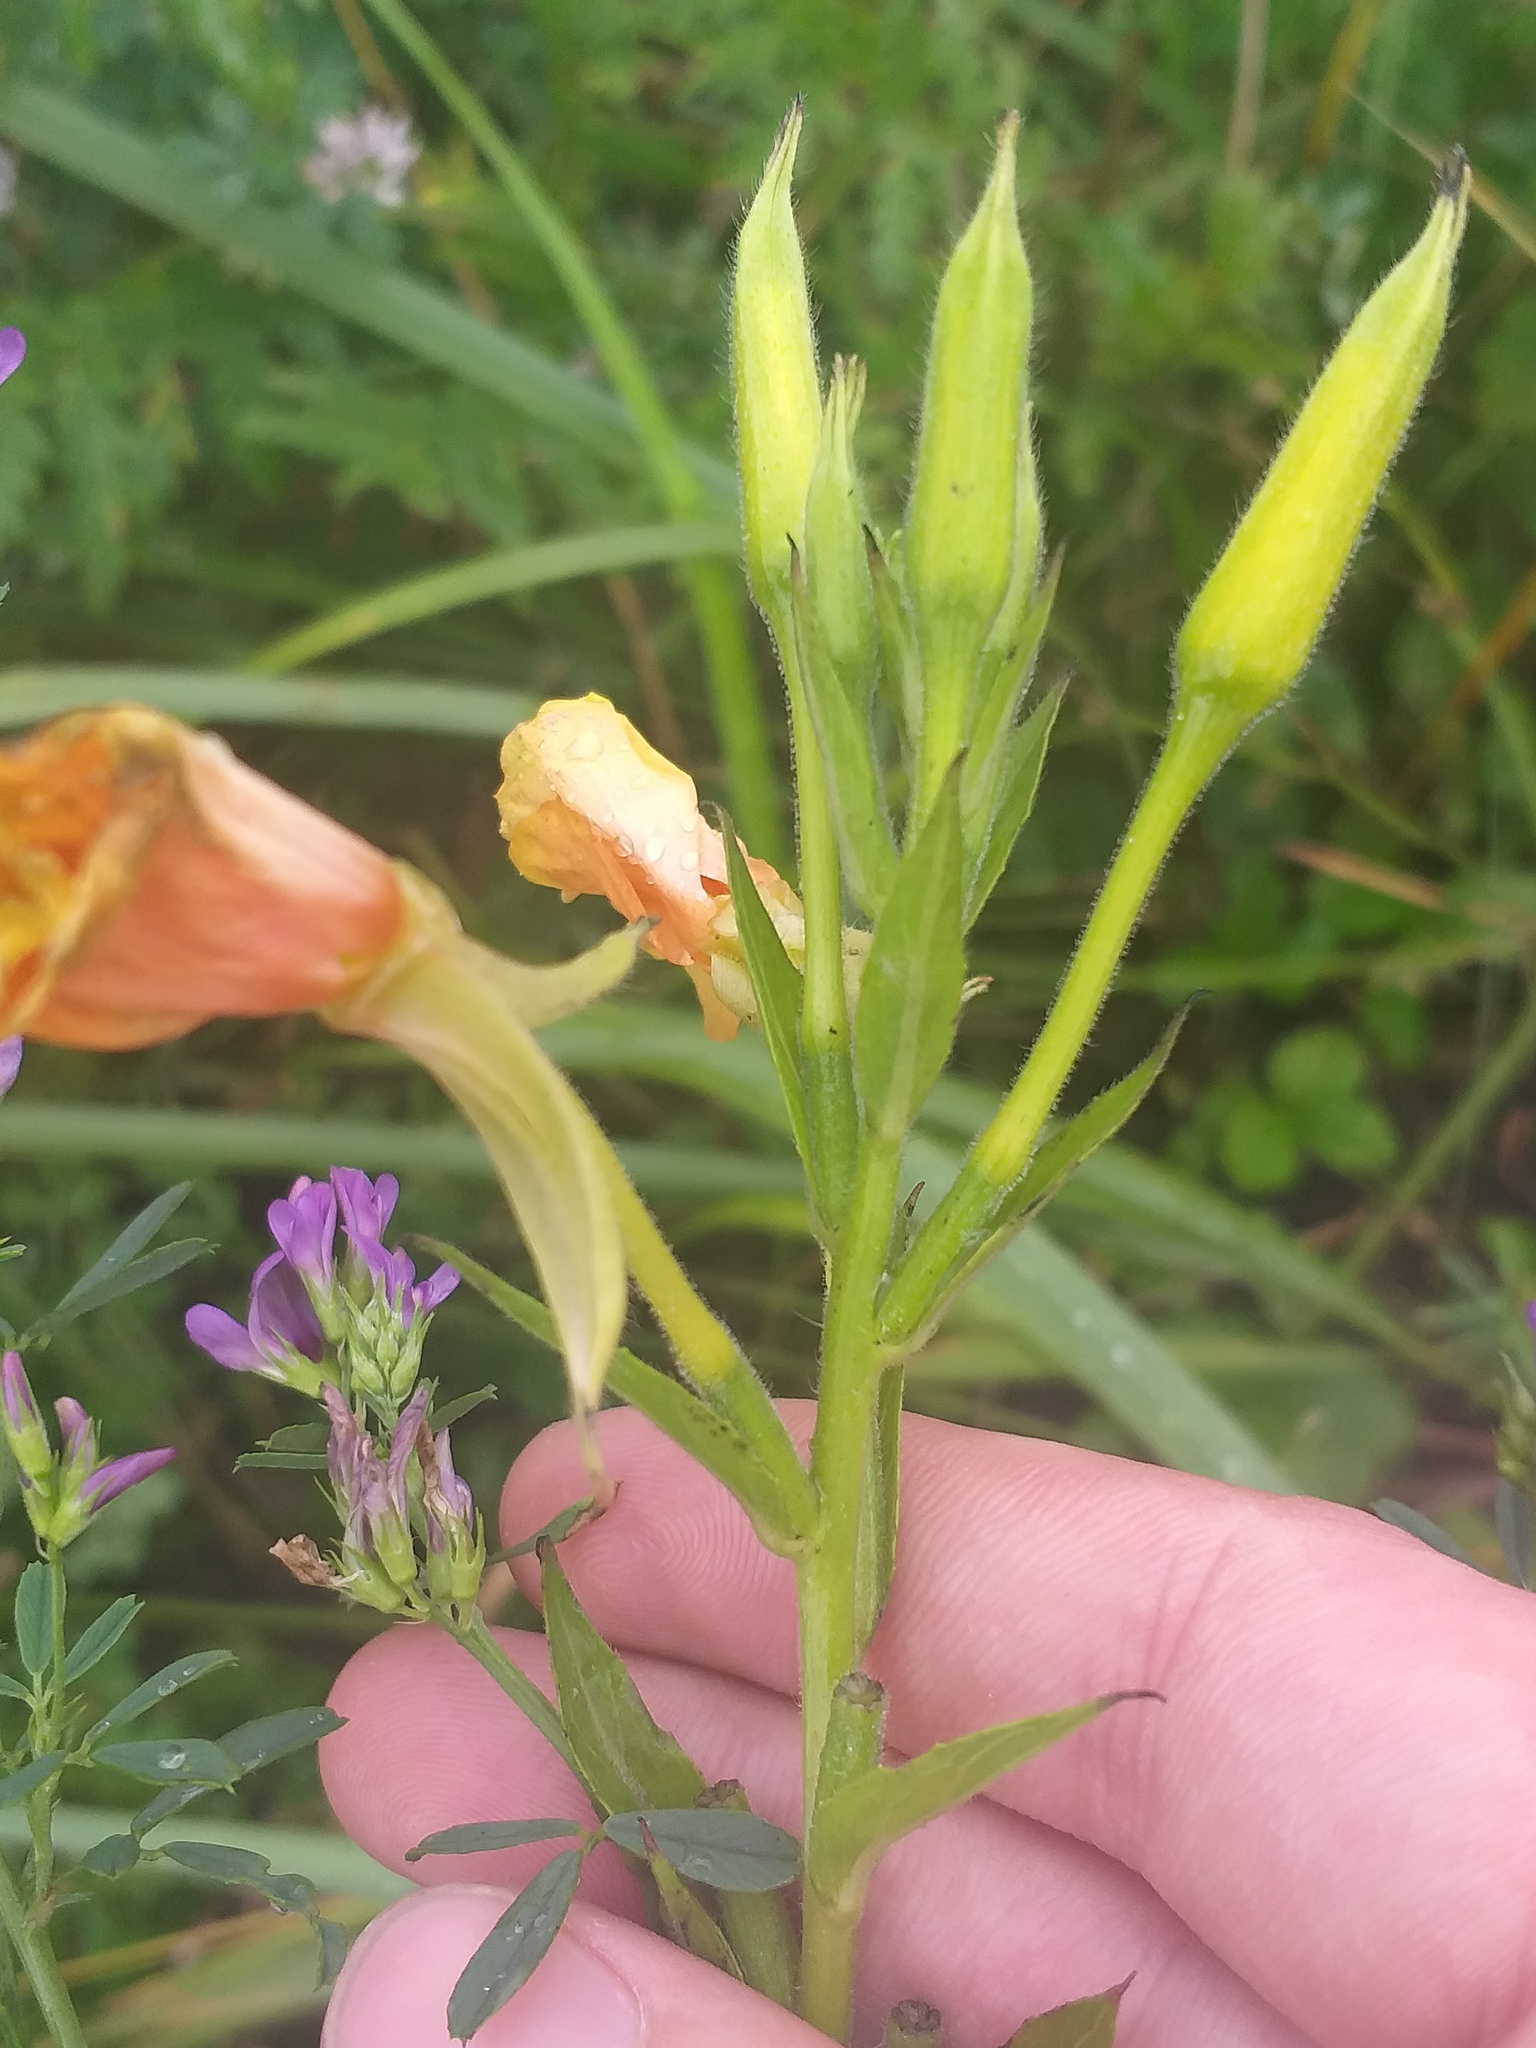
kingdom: Plantae
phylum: Tracheophyta
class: Magnoliopsida
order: Myrtales
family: Onagraceae
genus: Oenothera
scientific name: Oenothera biennis
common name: Common evening-primrose
